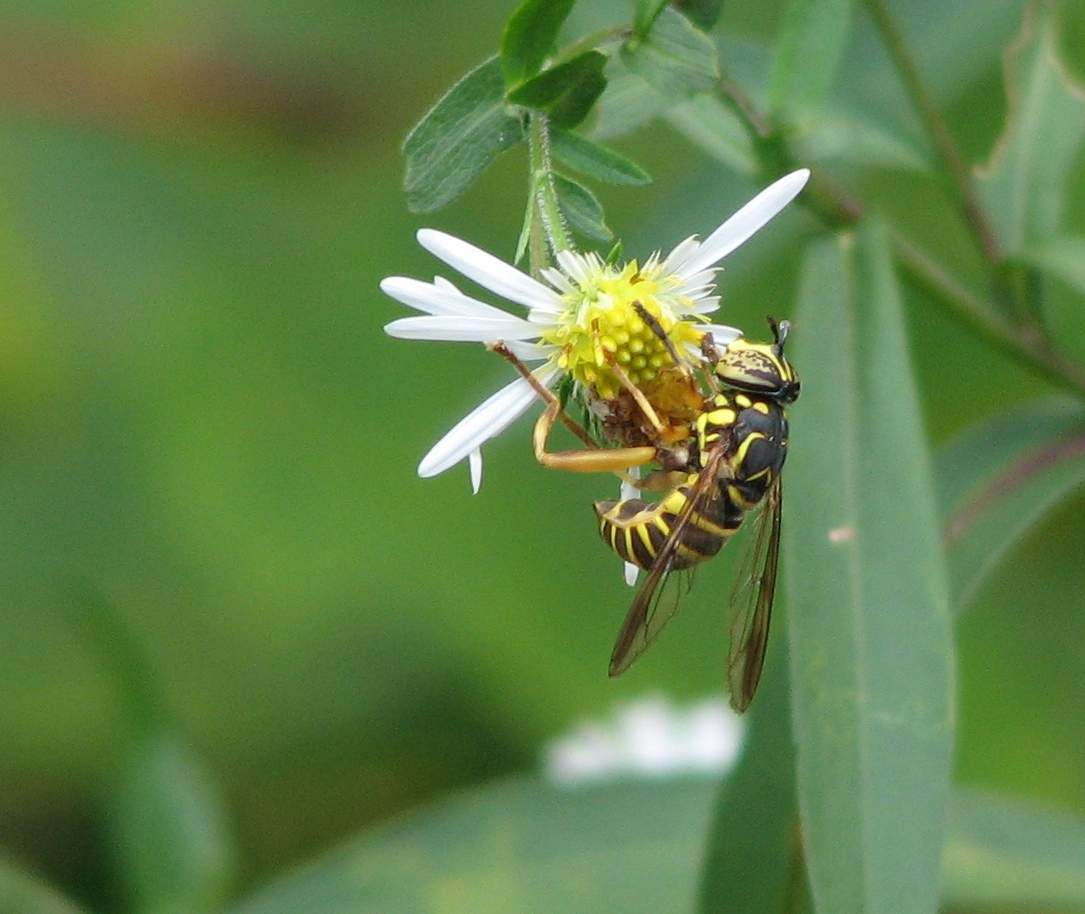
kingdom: Animalia
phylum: Arthropoda
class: Insecta
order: Diptera
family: Syrphidae
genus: Spilomyia
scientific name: Spilomyia longicornis
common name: Eastern hornet fly
